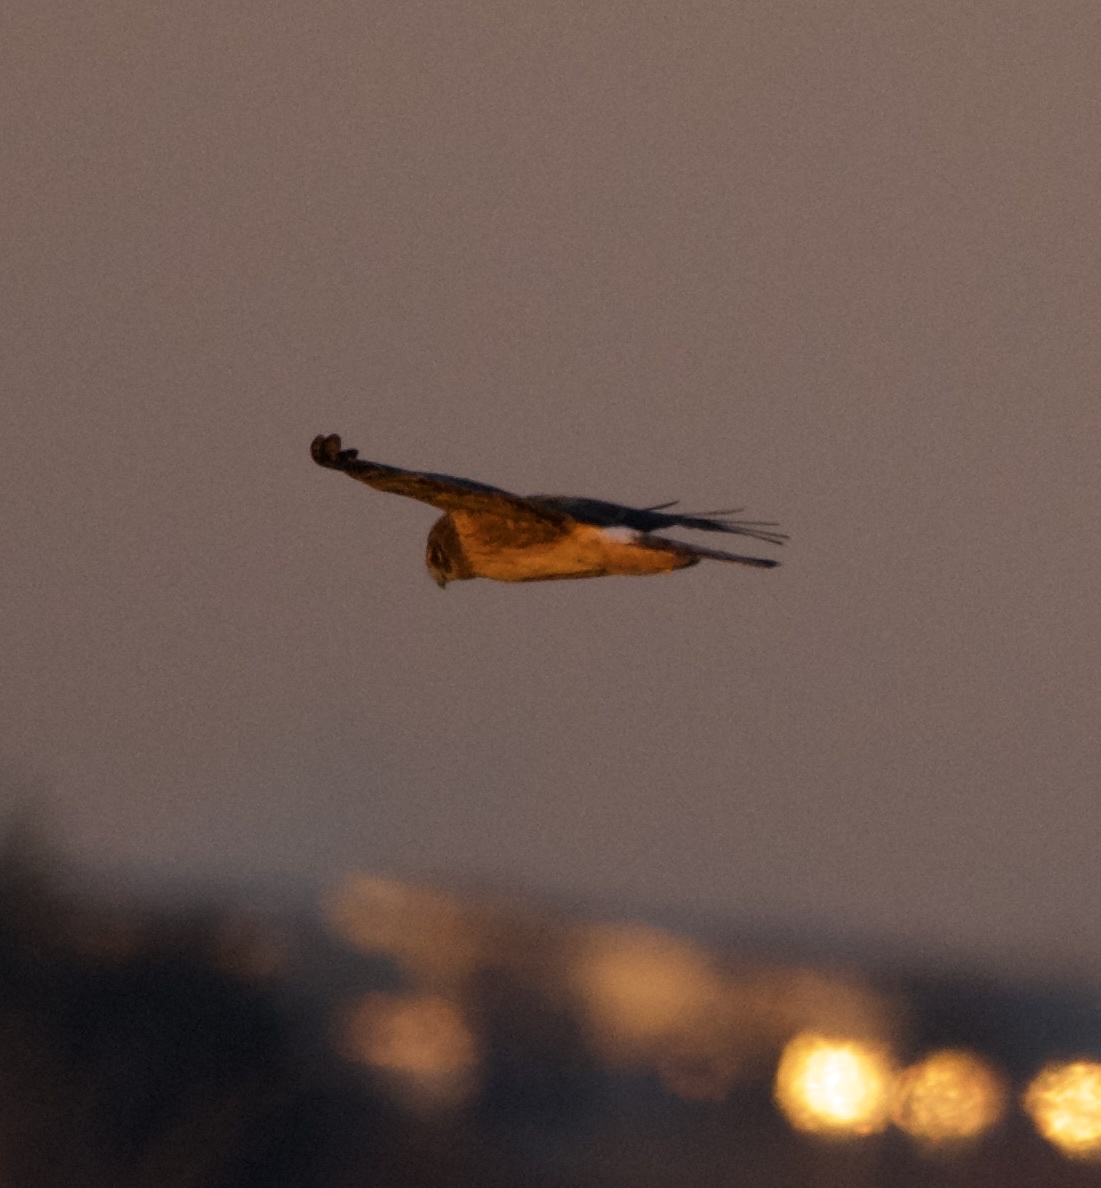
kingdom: Animalia
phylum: Chordata
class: Aves
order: Accipitriformes
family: Accipitridae
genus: Circus
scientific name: Circus cyaneus
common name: Hen harrier
